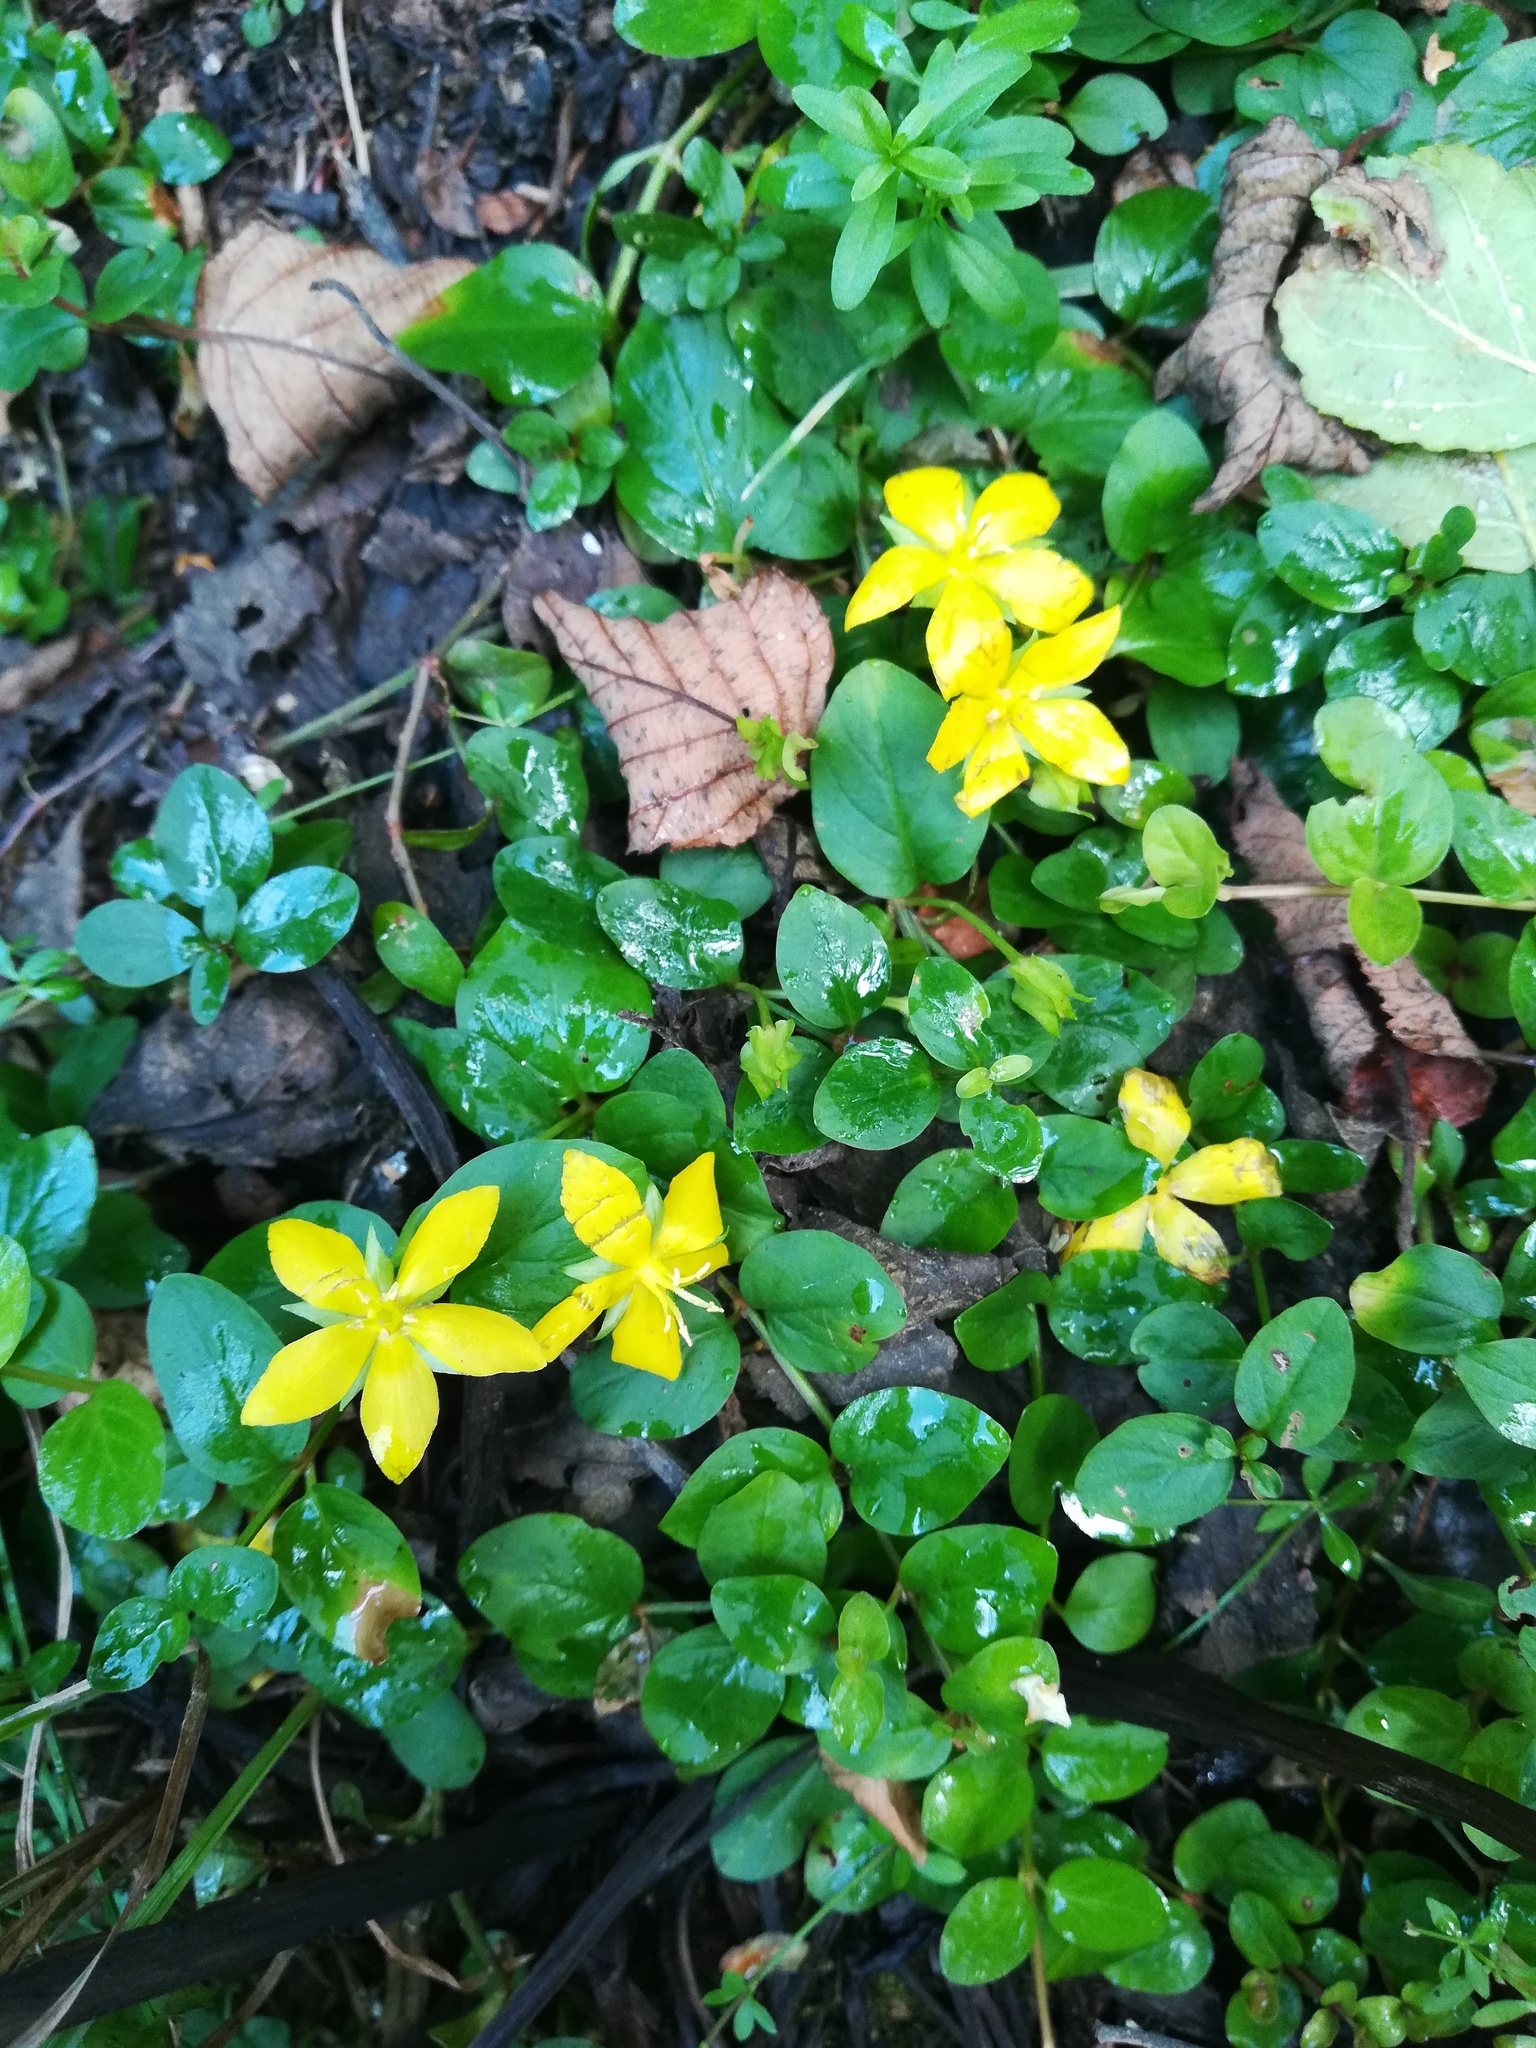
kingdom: Plantae
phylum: Tracheophyta
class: Magnoliopsida
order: Ericales
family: Primulaceae
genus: Lysimachia
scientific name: Lysimachia nummularia
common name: Moneywort
